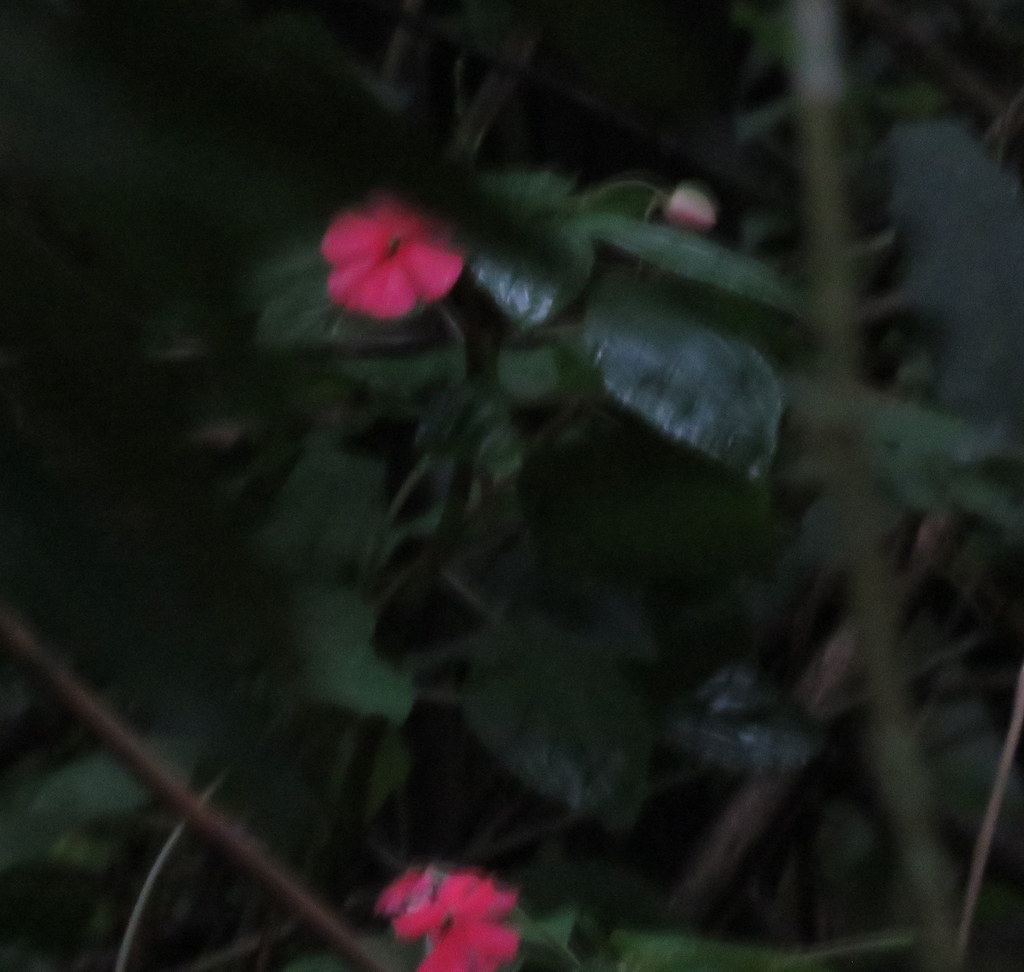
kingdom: Plantae
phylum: Tracheophyta
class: Magnoliopsida
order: Ericales
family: Balsaminaceae
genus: Impatiens
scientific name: Impatiens walleriana
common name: Buzzy lizzy
